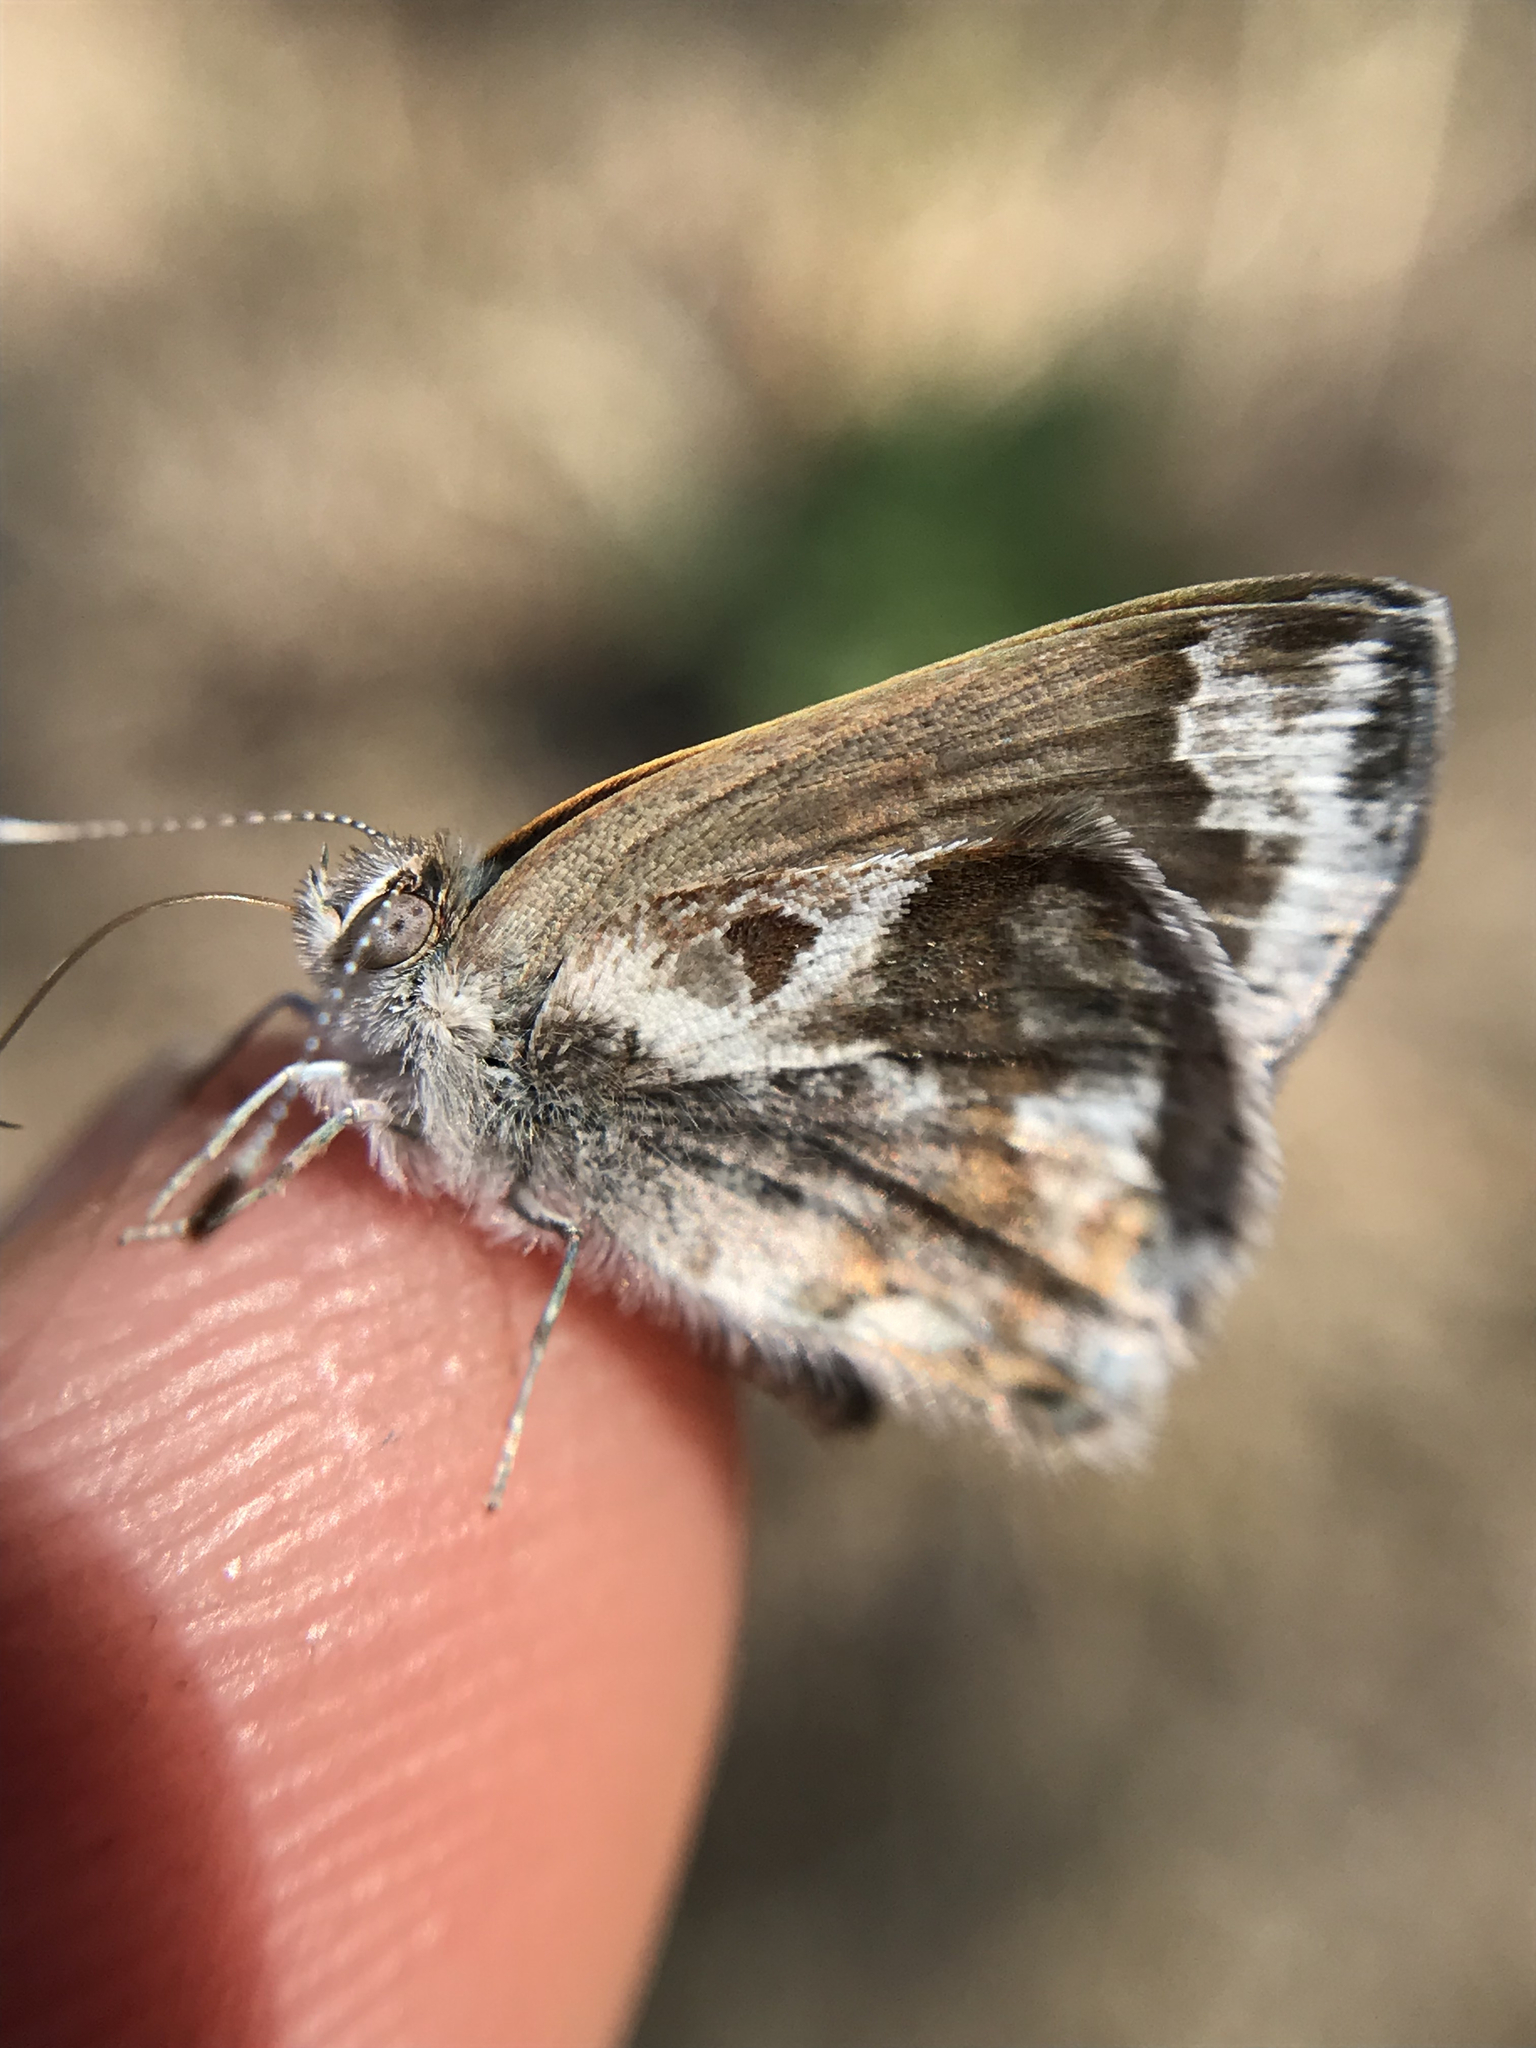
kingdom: Animalia
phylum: Arthropoda
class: Insecta
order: Lepidoptera
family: Lycaenidae
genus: Strymon
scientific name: Strymon bazochii
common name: Lantana scrub-hairstreak
